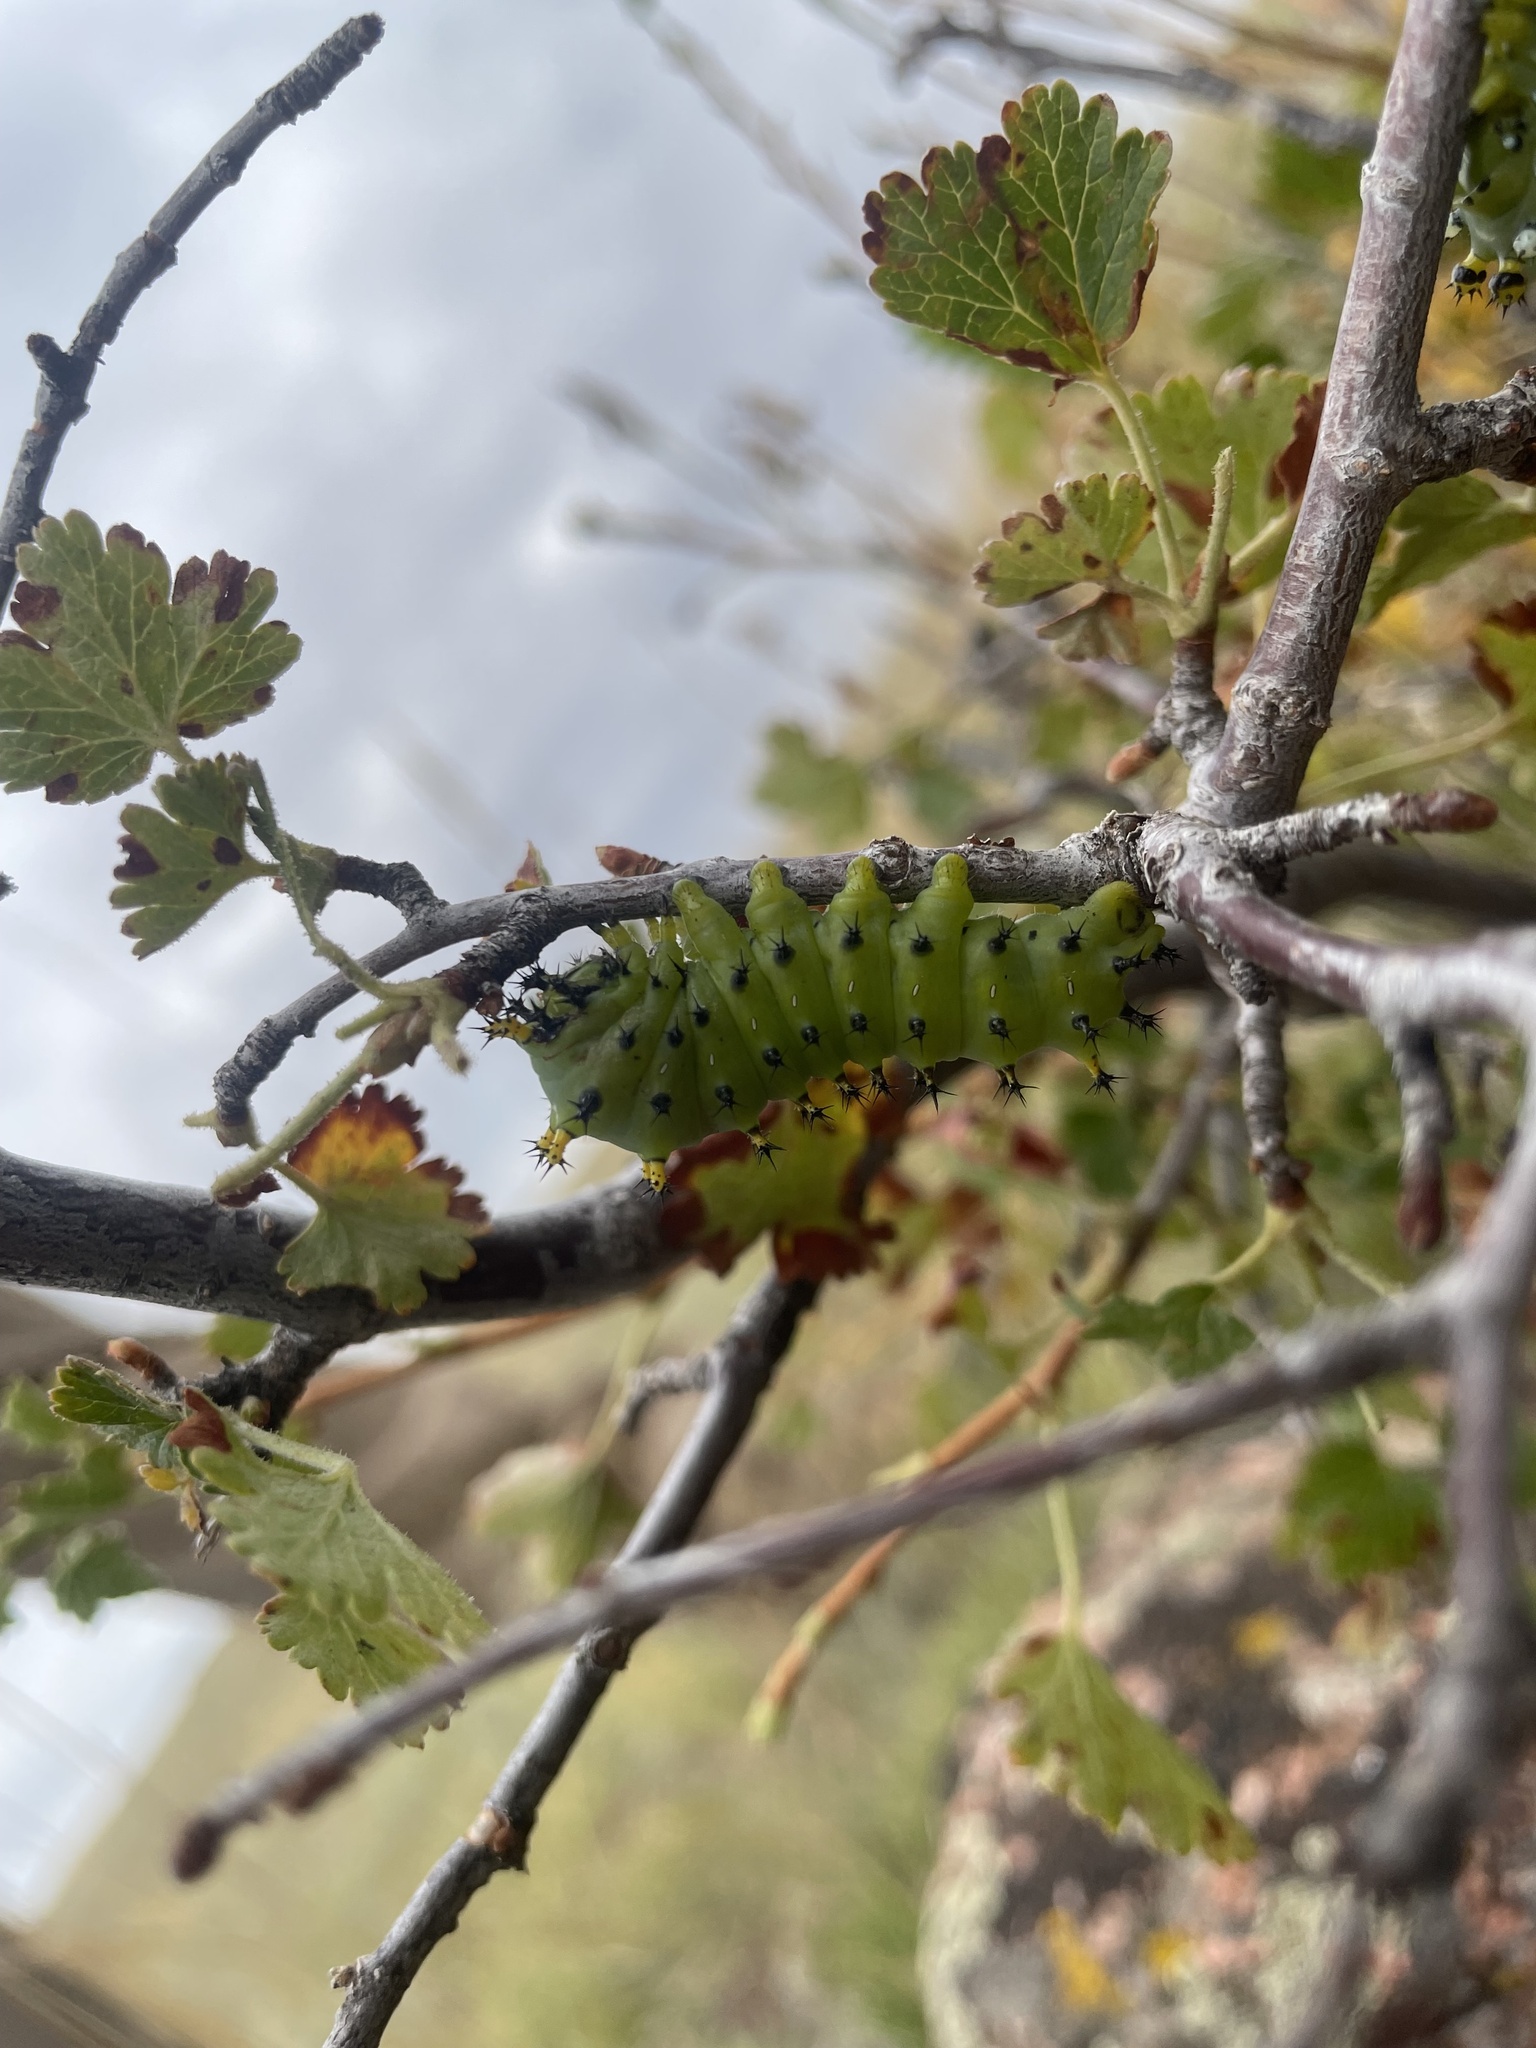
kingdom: Animalia
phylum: Arthropoda
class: Insecta
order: Lepidoptera
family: Saturniidae
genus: Hyalophora
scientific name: Hyalophora gloveri
